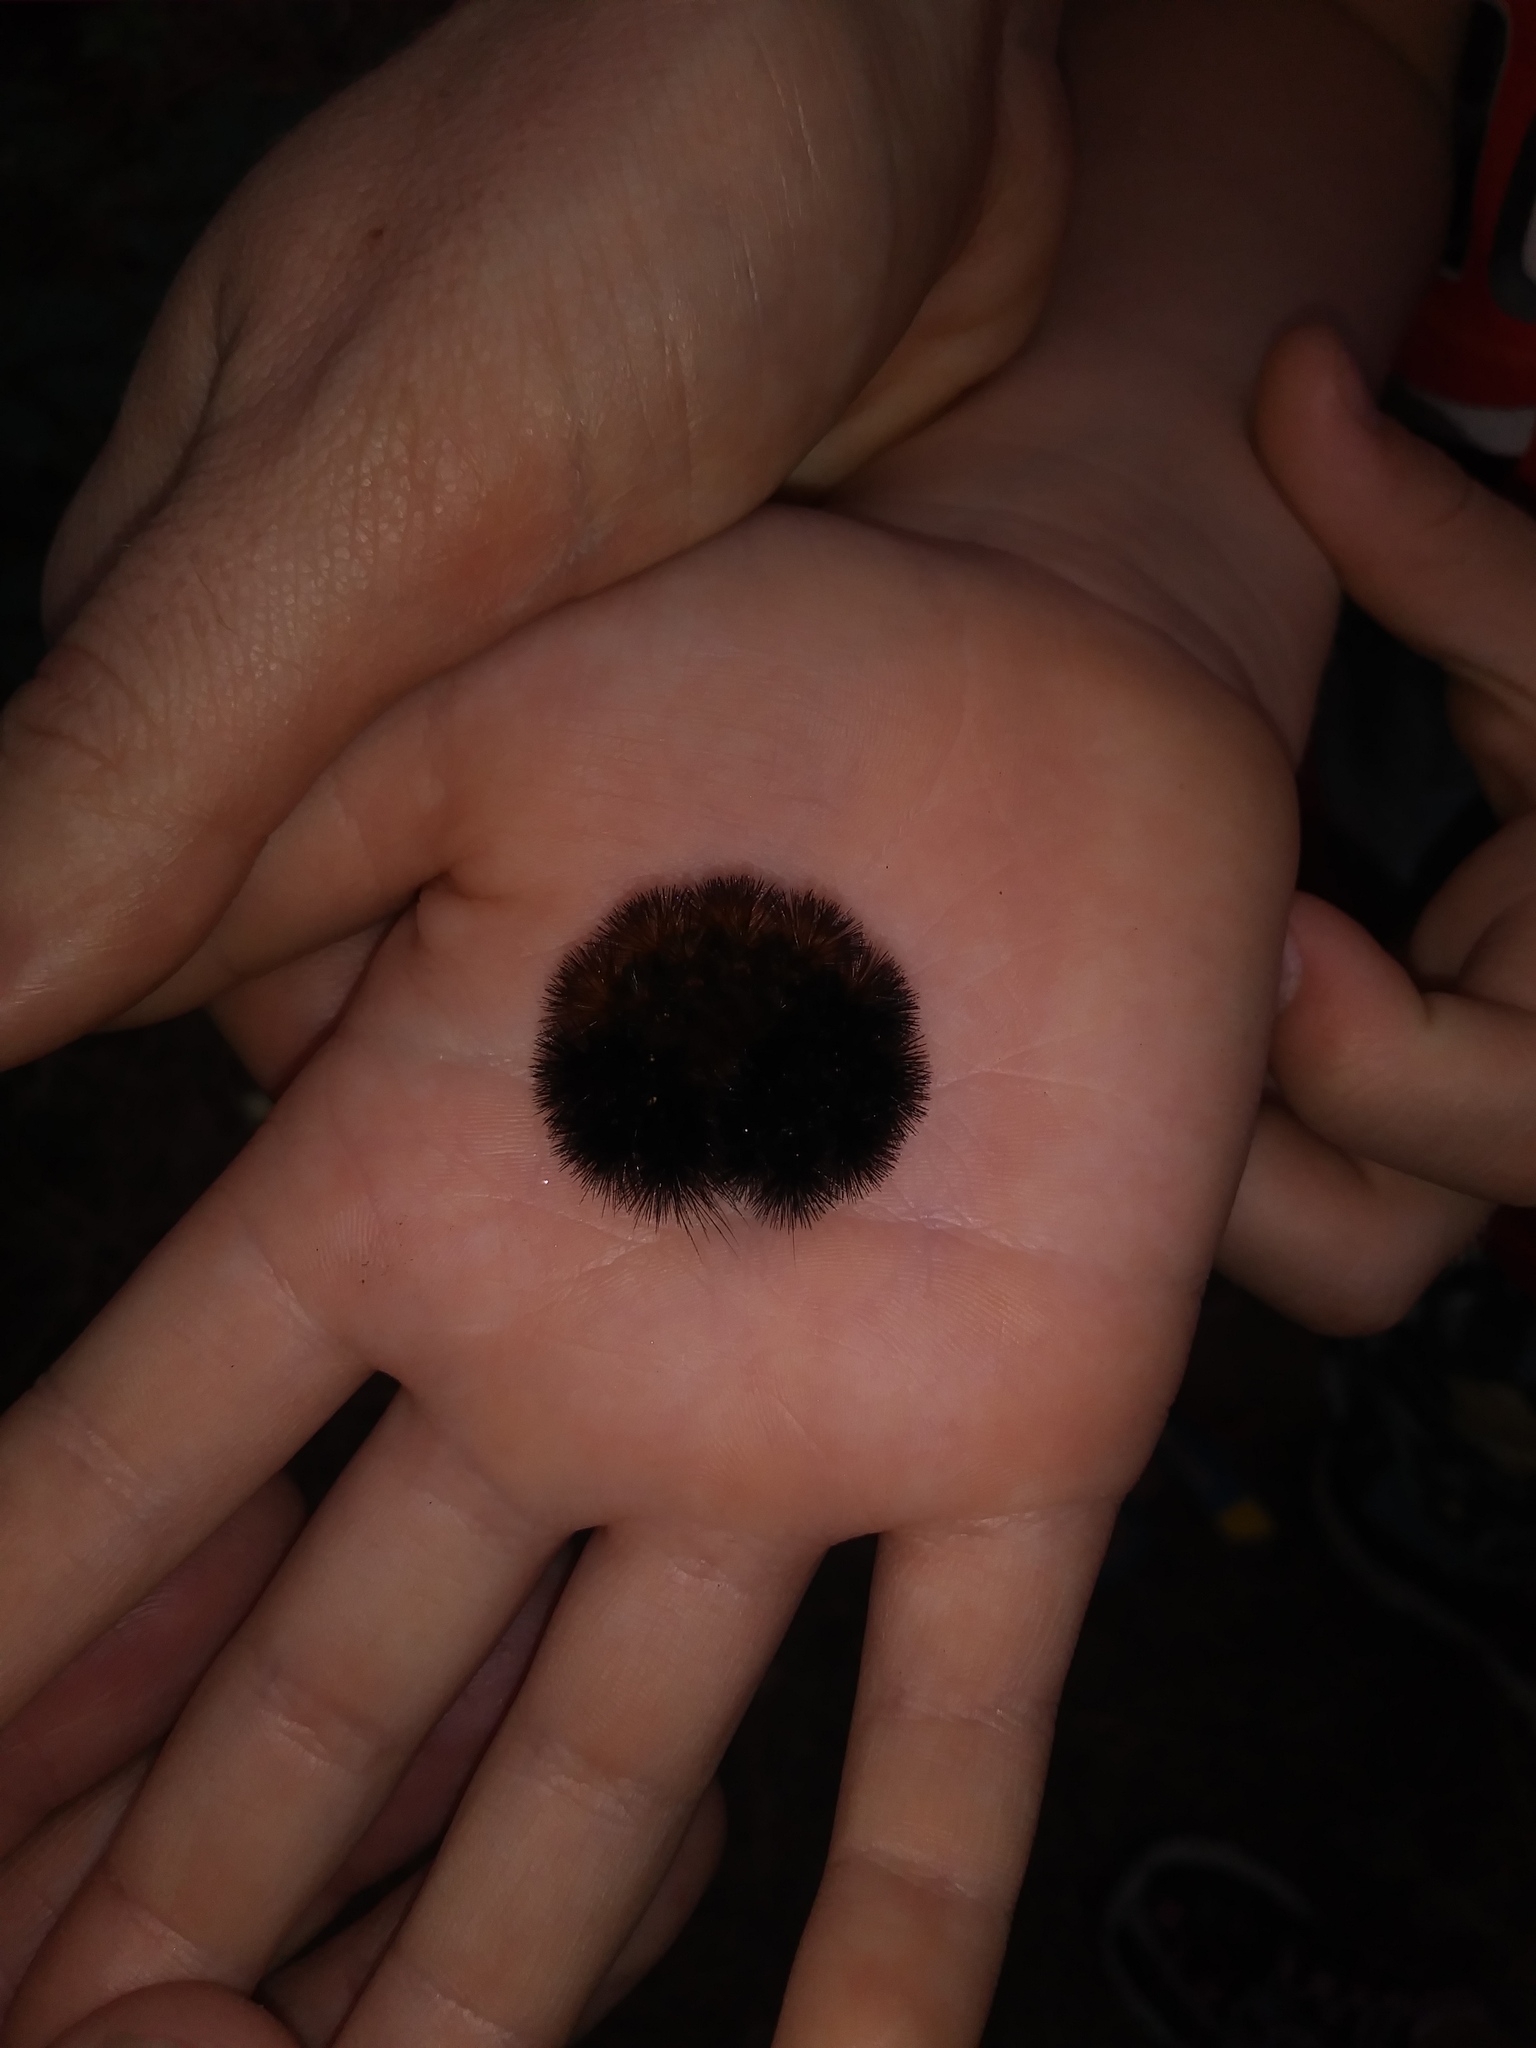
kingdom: Animalia
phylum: Arthropoda
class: Insecta
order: Lepidoptera
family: Erebidae
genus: Pyrrharctia
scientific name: Pyrrharctia isabella
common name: Isabella tiger moth
